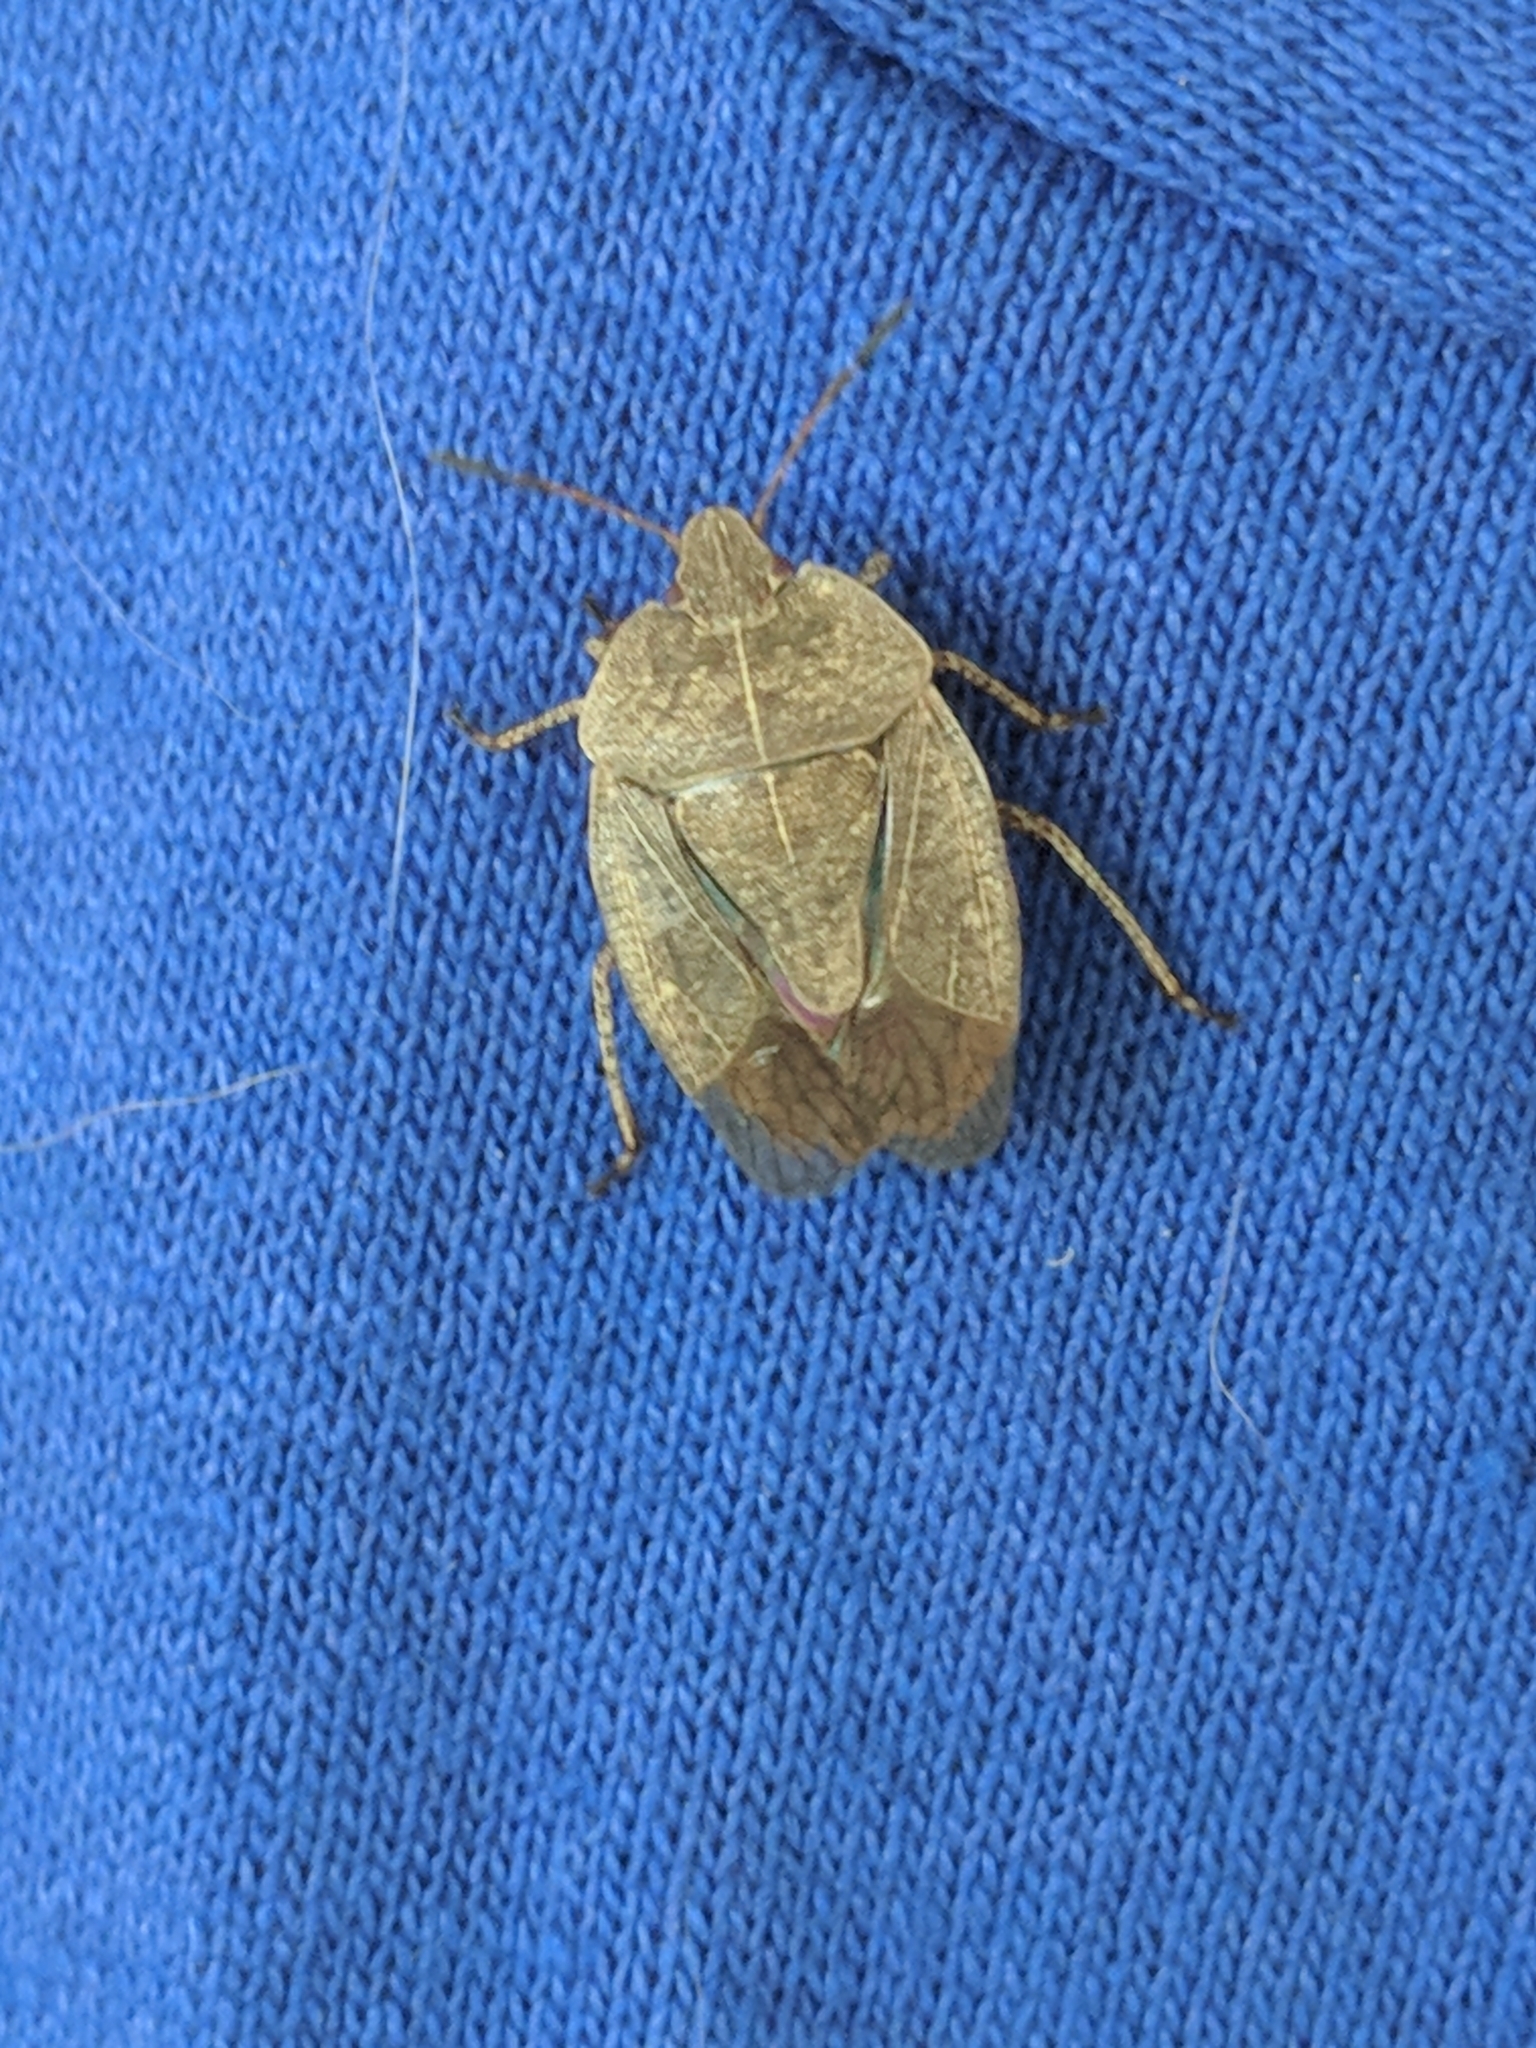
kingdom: Animalia
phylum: Arthropoda
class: Insecta
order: Hemiptera
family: Pentatomidae
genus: Menecles
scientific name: Menecles insertus
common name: Elf shoe stink bug
